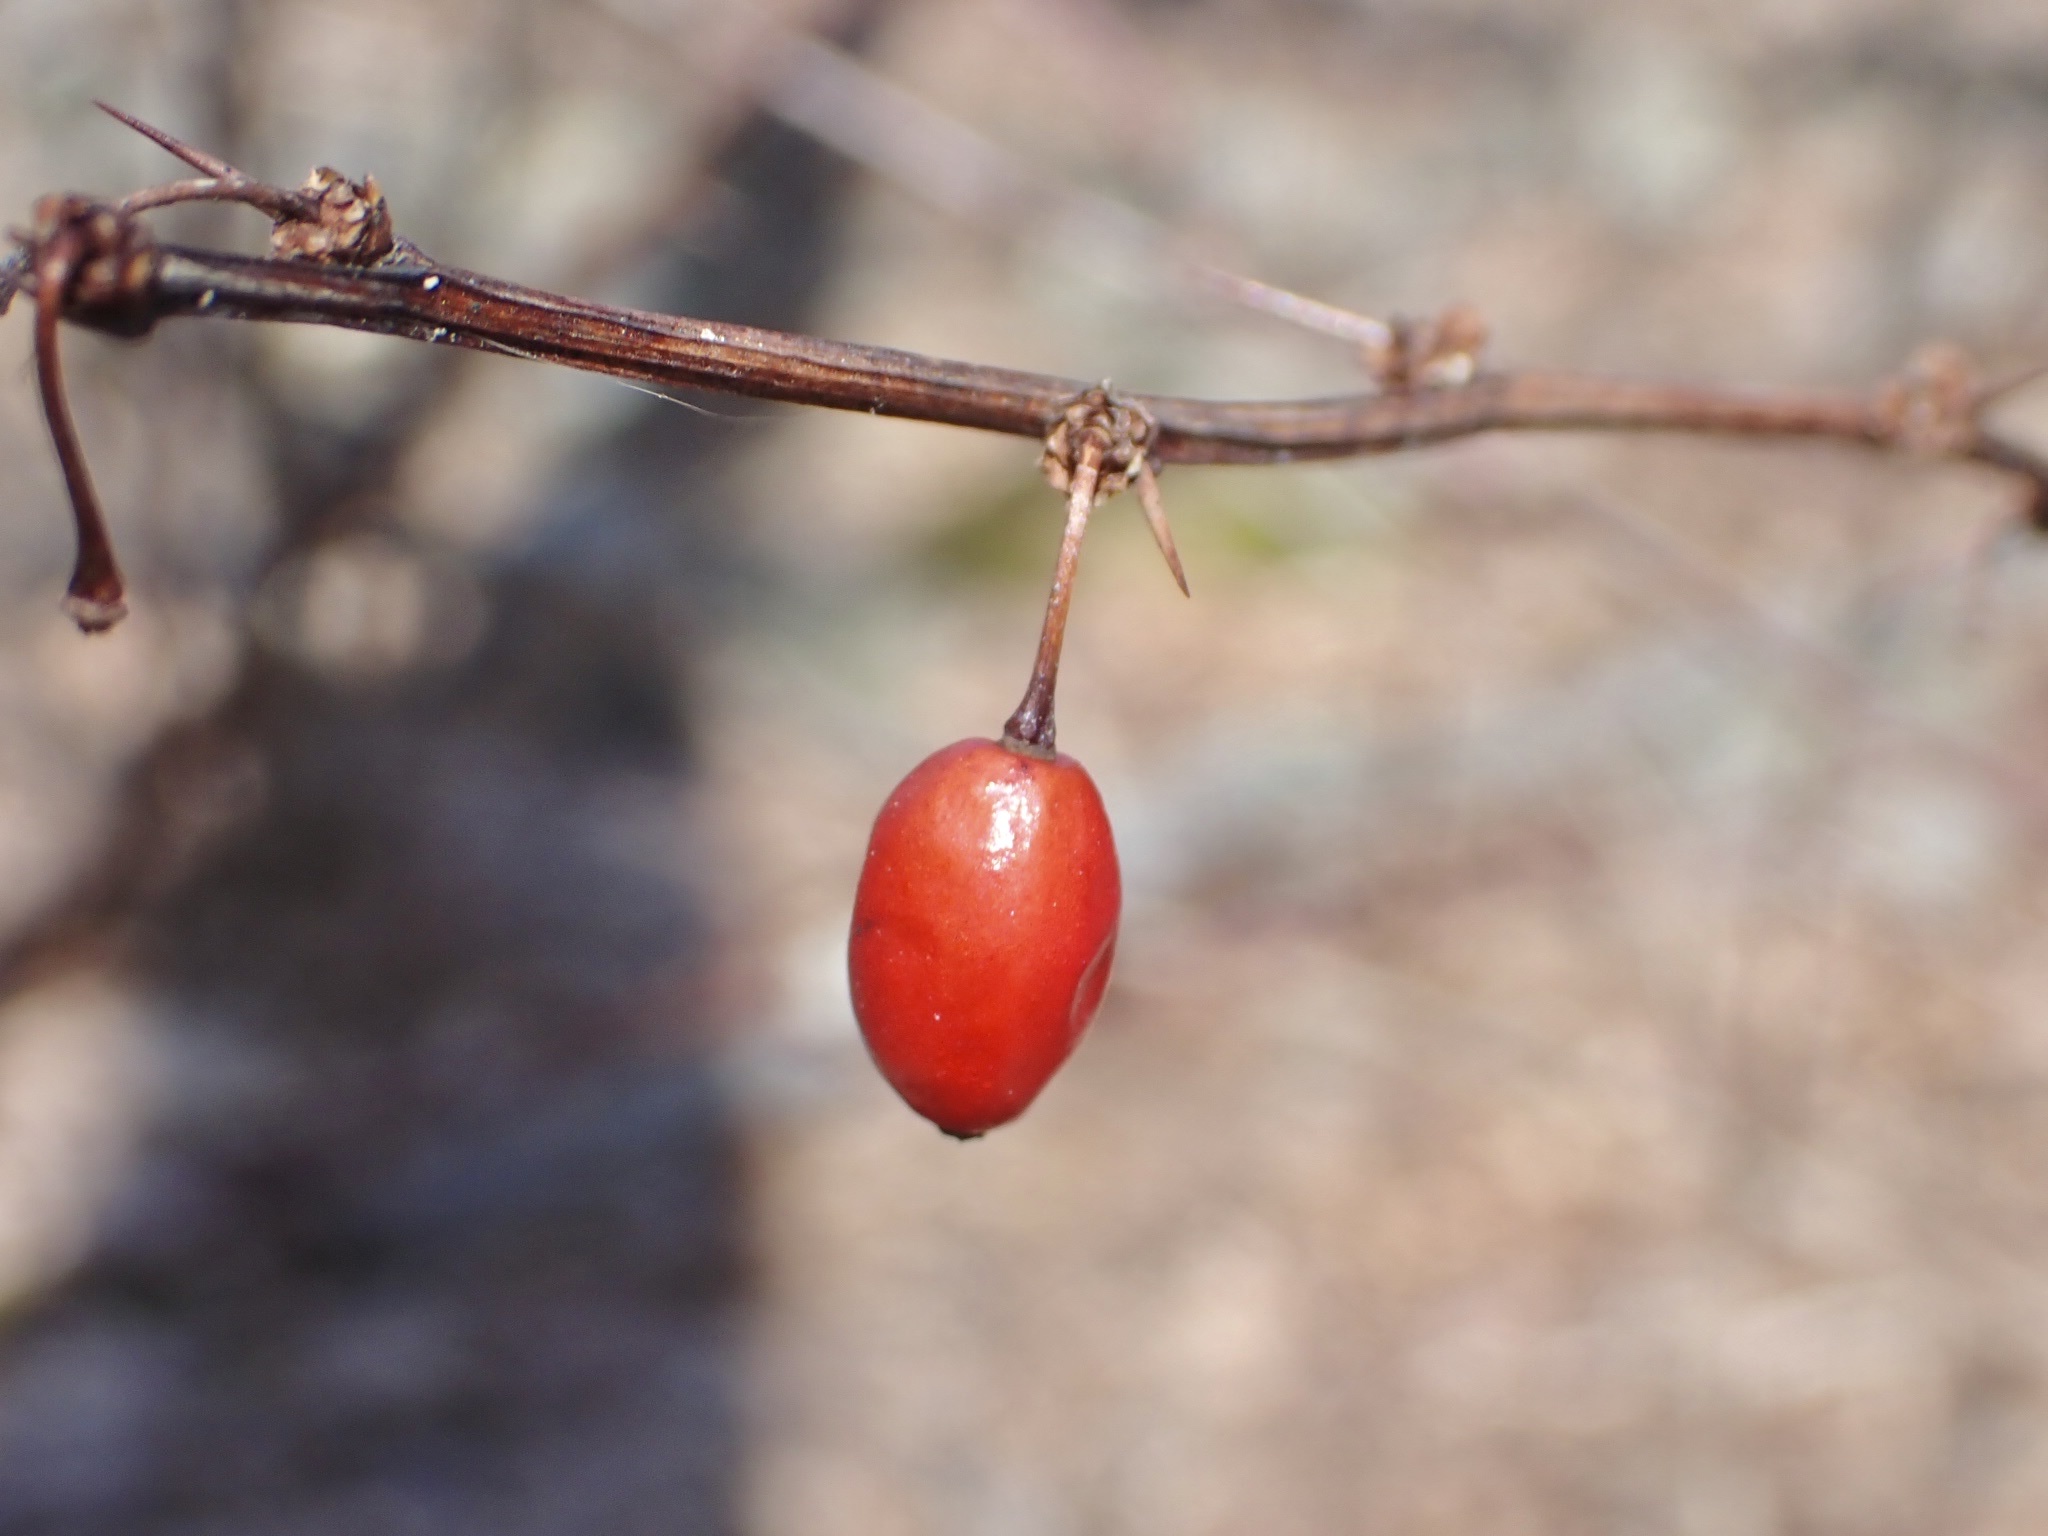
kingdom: Plantae
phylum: Tracheophyta
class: Magnoliopsida
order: Ranunculales
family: Berberidaceae
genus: Berberis
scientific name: Berberis thunbergii
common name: Japanese barberry
